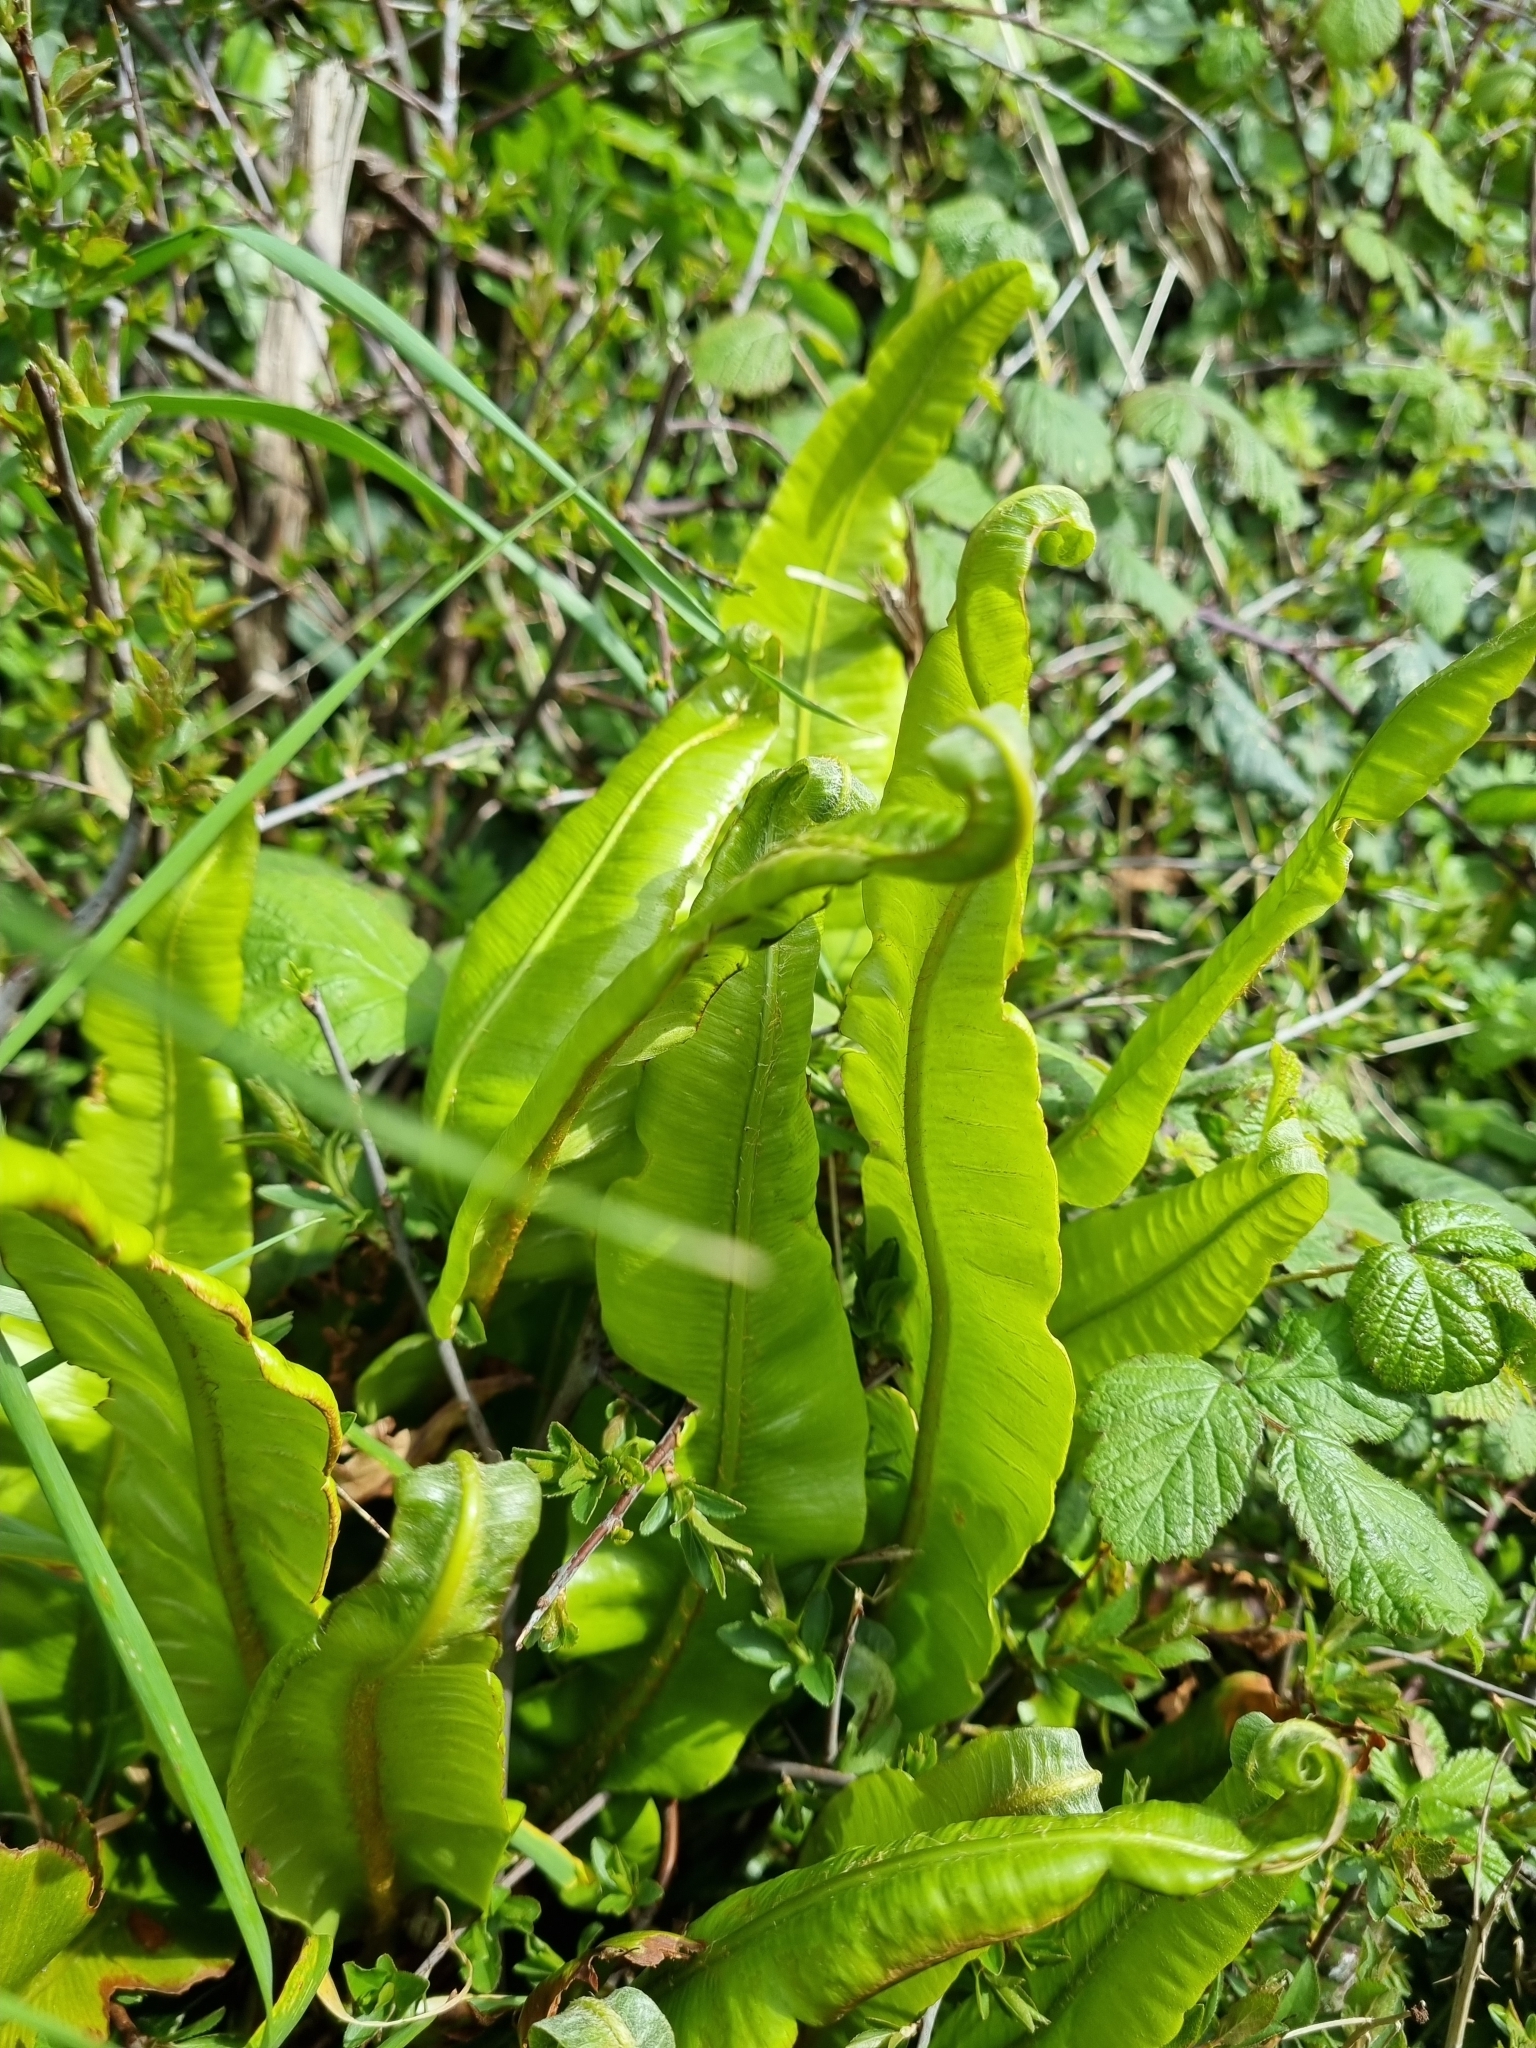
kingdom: Plantae
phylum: Tracheophyta
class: Polypodiopsida
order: Polypodiales
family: Aspleniaceae
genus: Asplenium
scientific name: Asplenium scolopendrium
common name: Hart's-tongue fern
